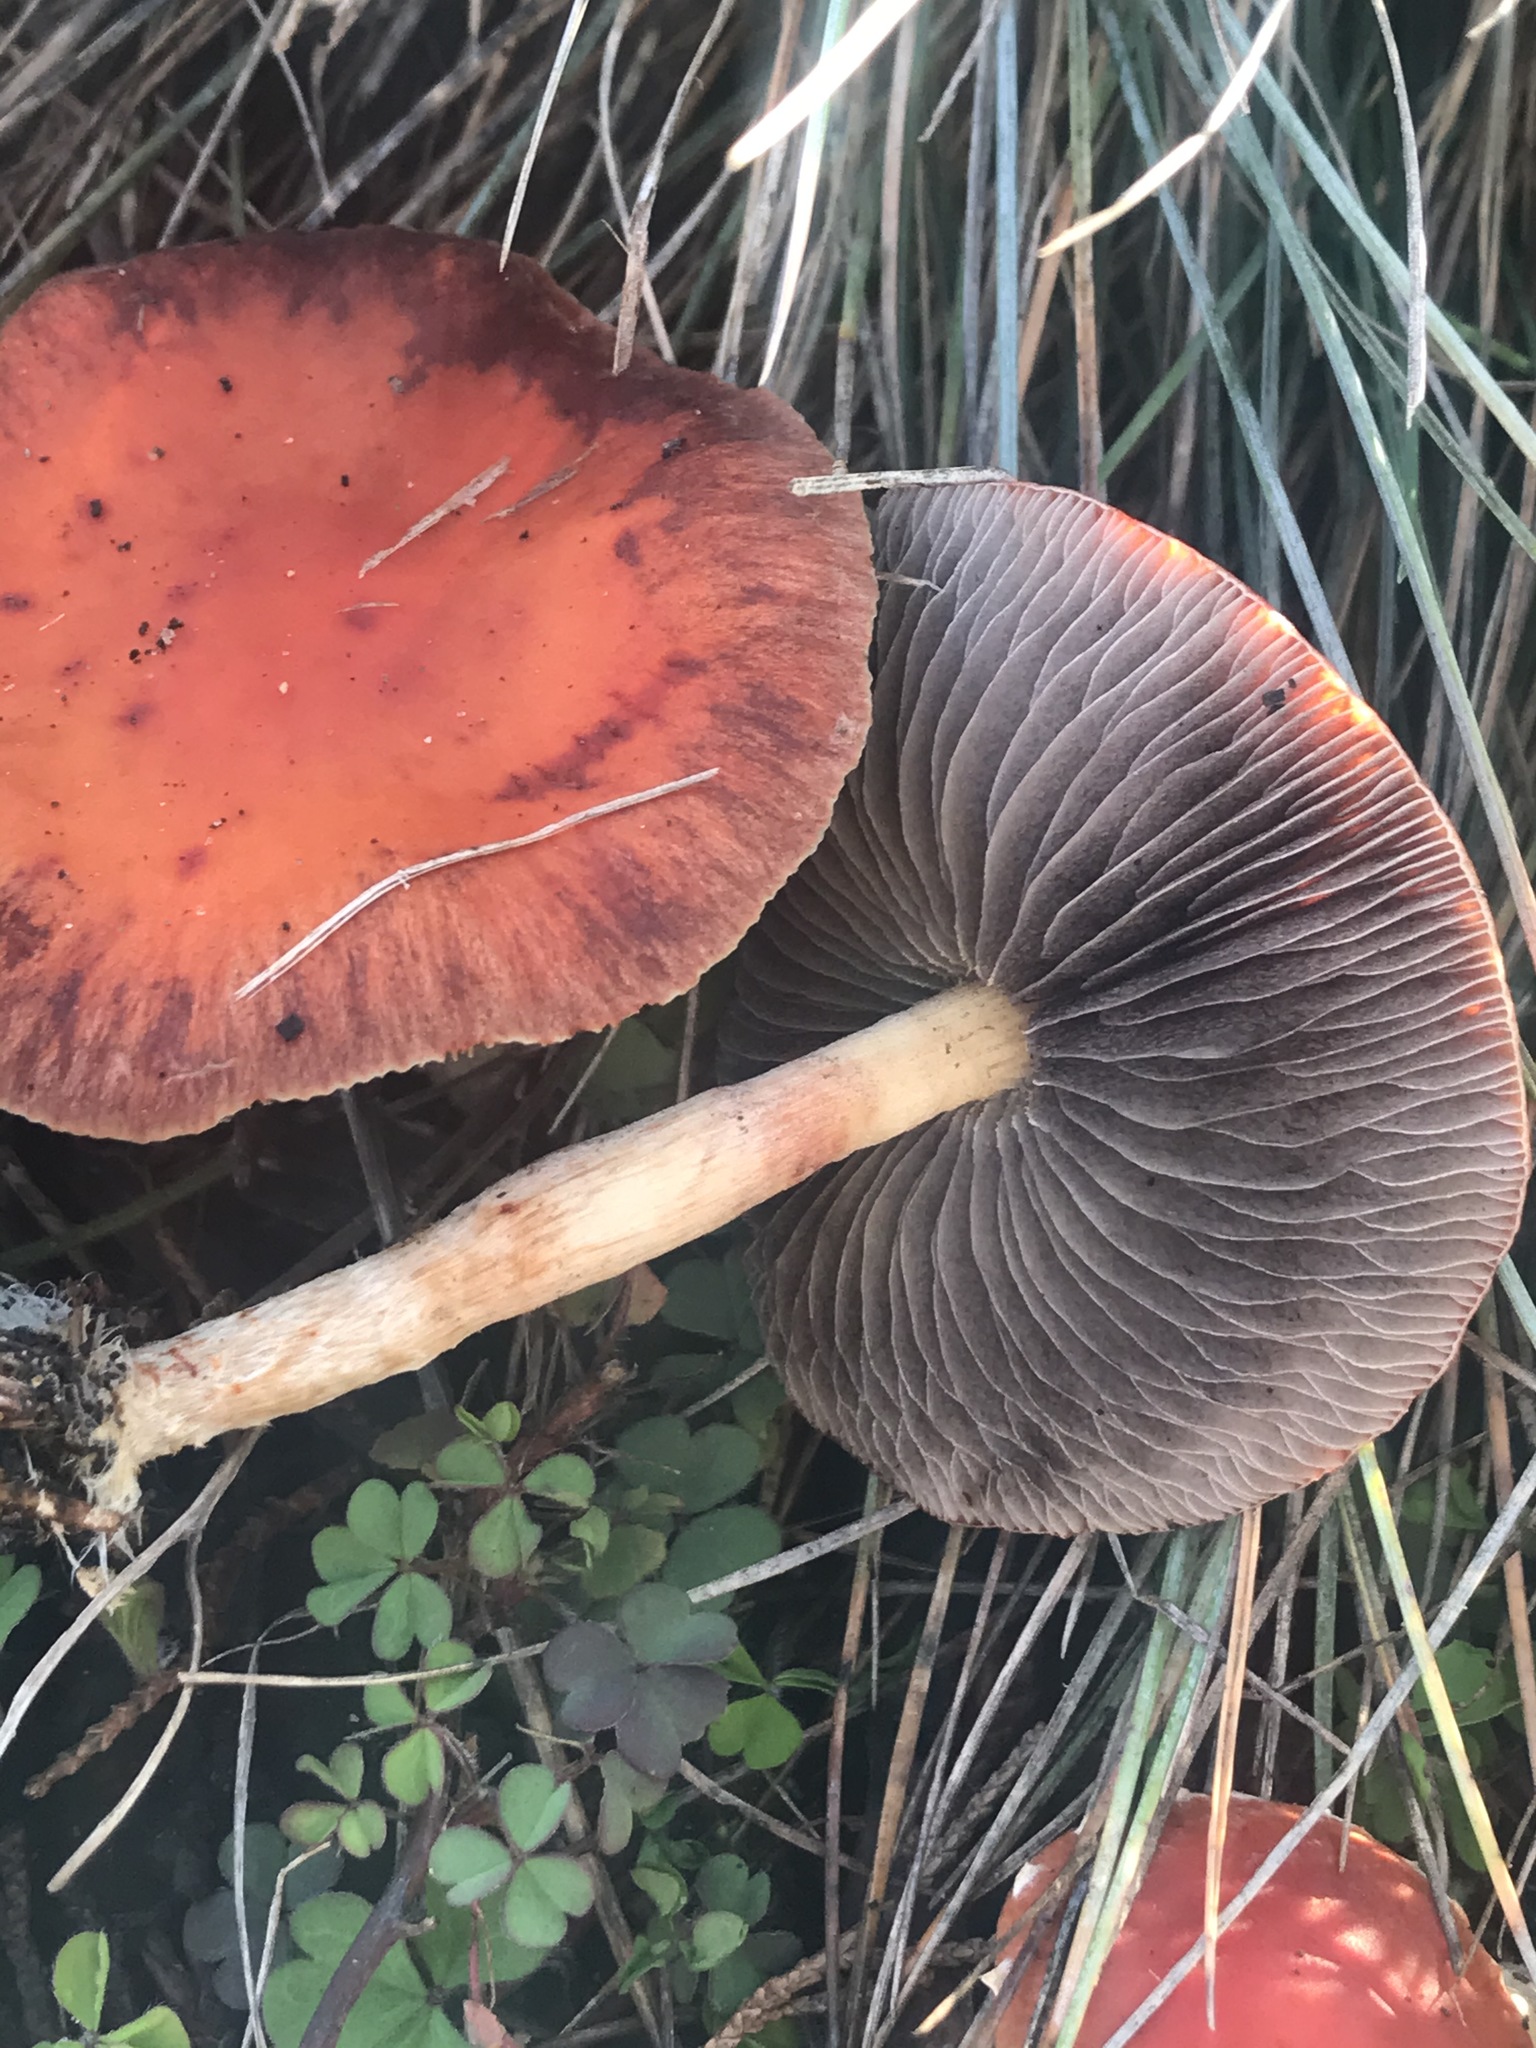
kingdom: Fungi
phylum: Basidiomycota
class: Agaricomycetes
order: Agaricales
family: Strophariaceae
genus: Leratiomyces
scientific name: Leratiomyces ceres
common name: Redlead roundhead
